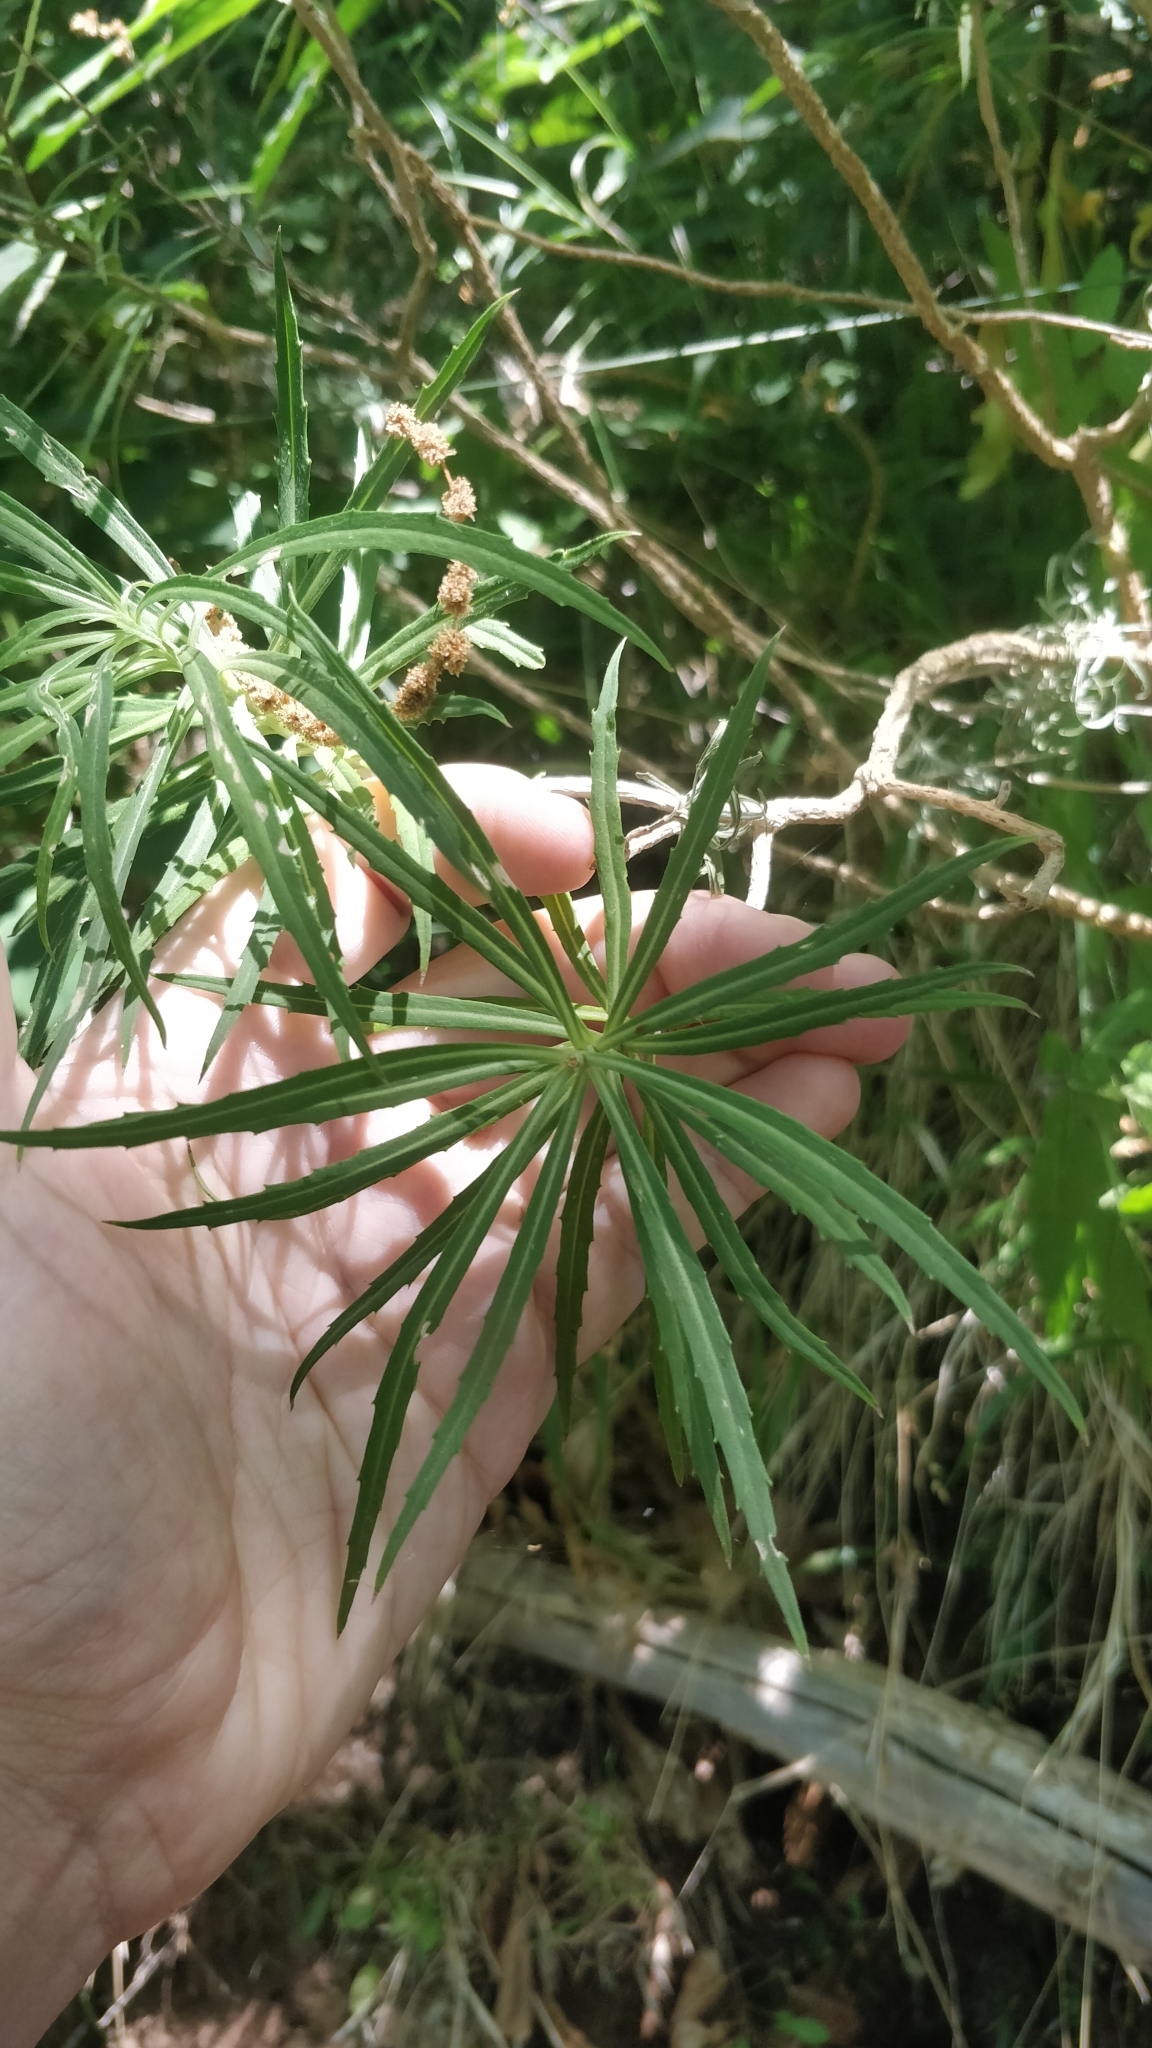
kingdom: Plantae
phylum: Tracheophyta
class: Magnoliopsida
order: Brassicales
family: Brassicaceae
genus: Erysimum
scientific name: Erysimum bicolor
